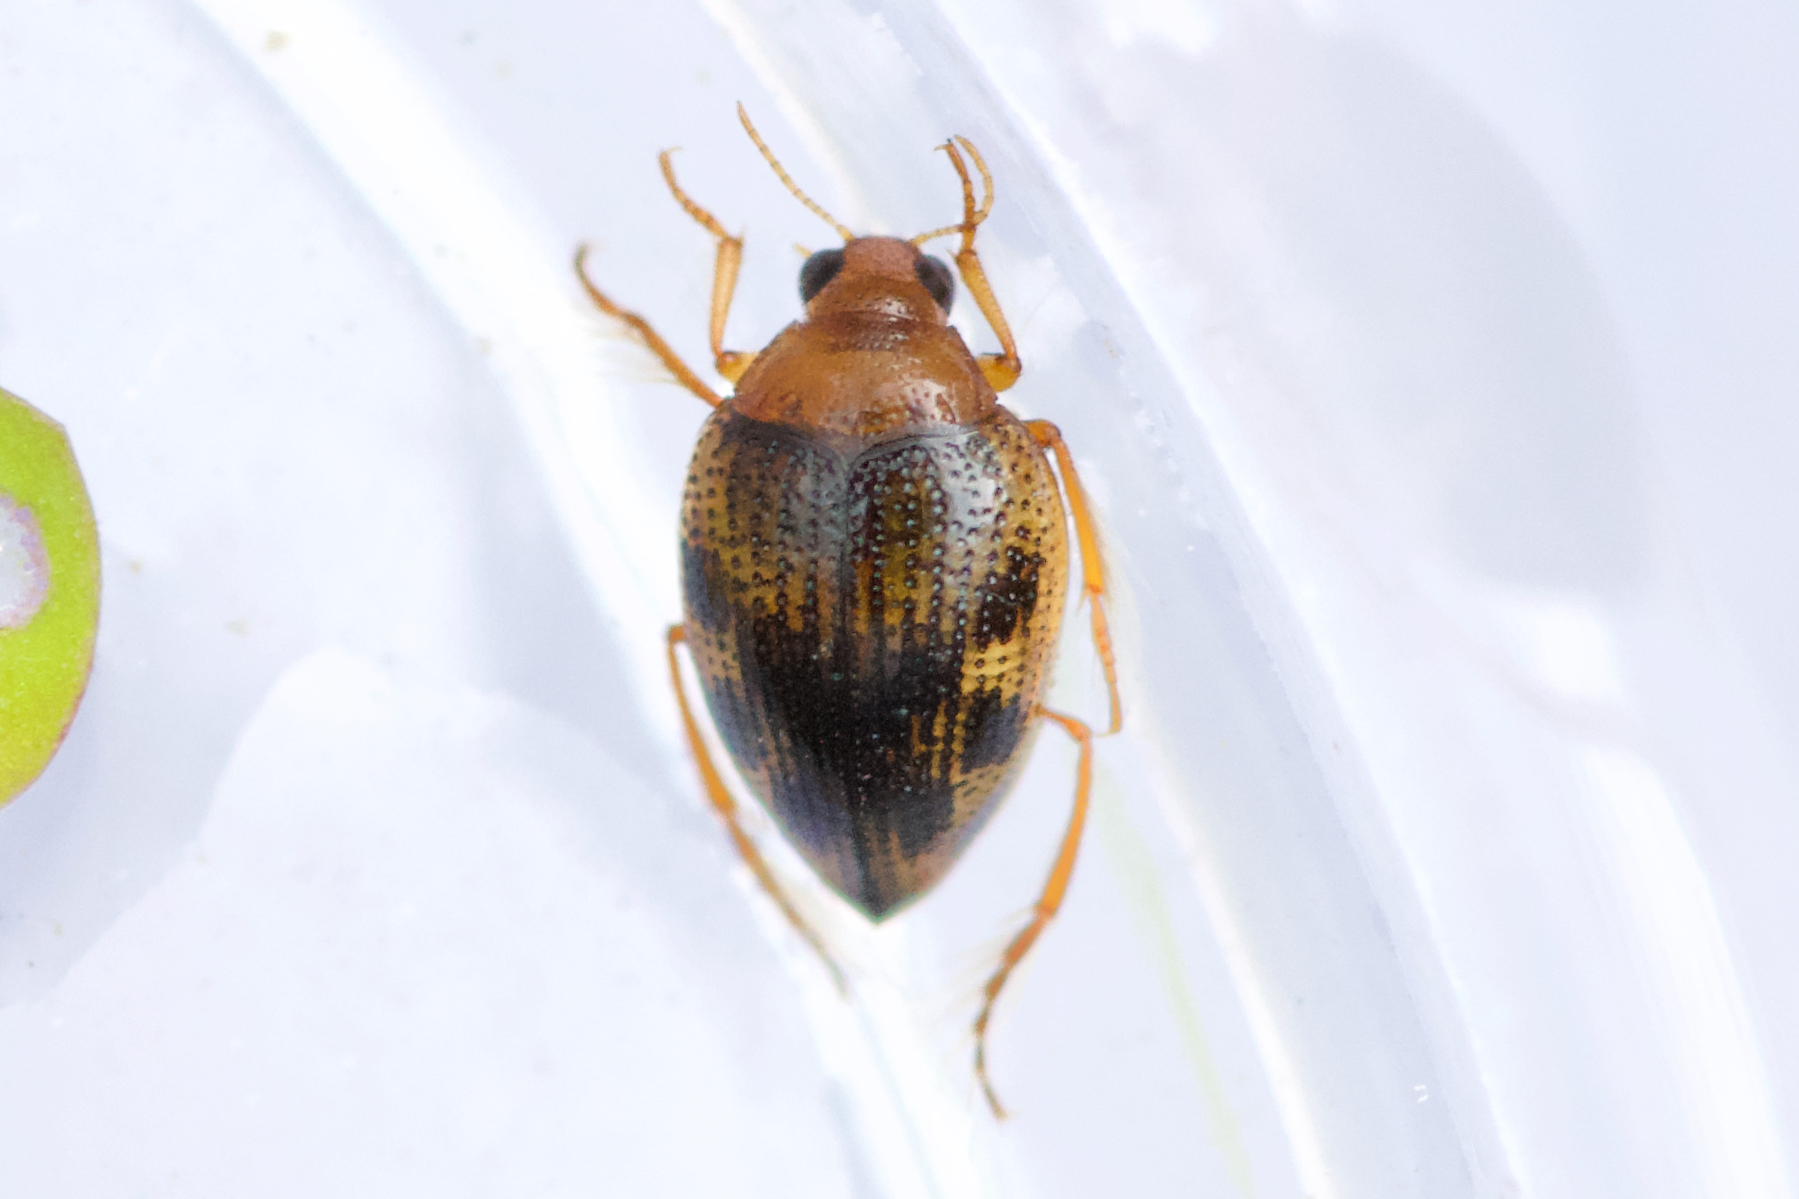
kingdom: Animalia
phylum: Arthropoda
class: Insecta
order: Coleoptera
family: Haliplidae
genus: Haliplus
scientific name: Haliplus immaculicollis
